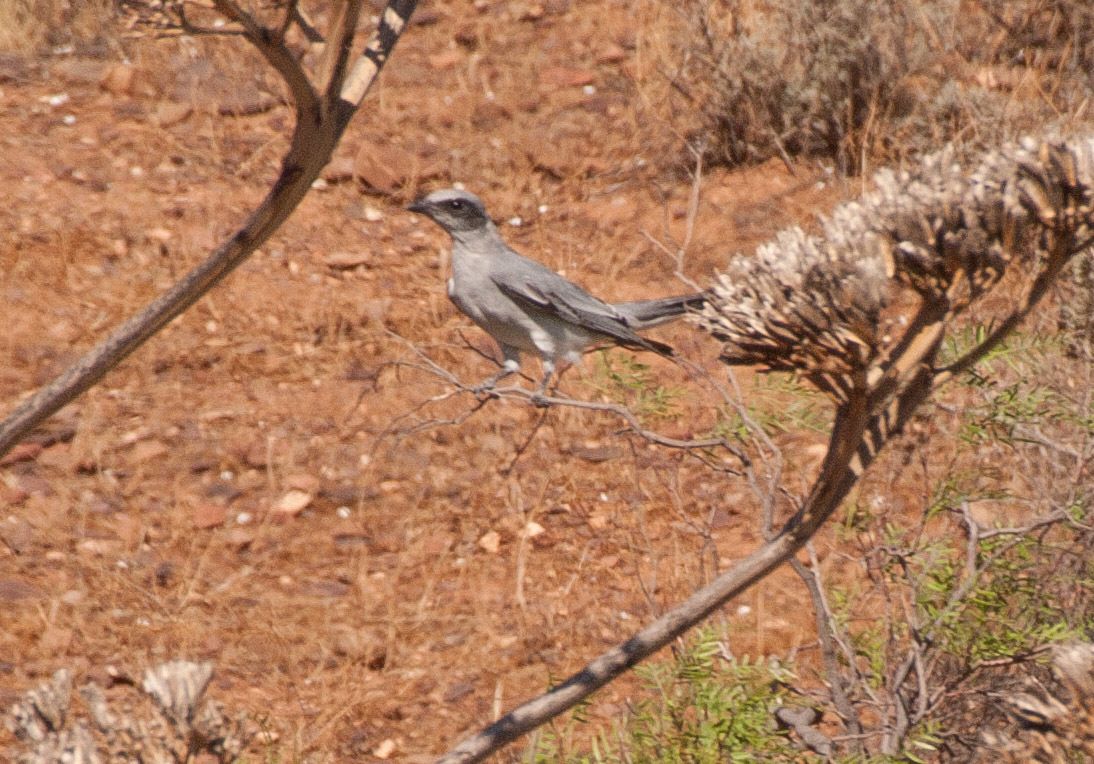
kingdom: Animalia
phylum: Chordata
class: Aves
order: Passeriformes
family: Campephagidae
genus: Coracina
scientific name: Coracina novaehollandiae
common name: Black-faced cuckooshrike
